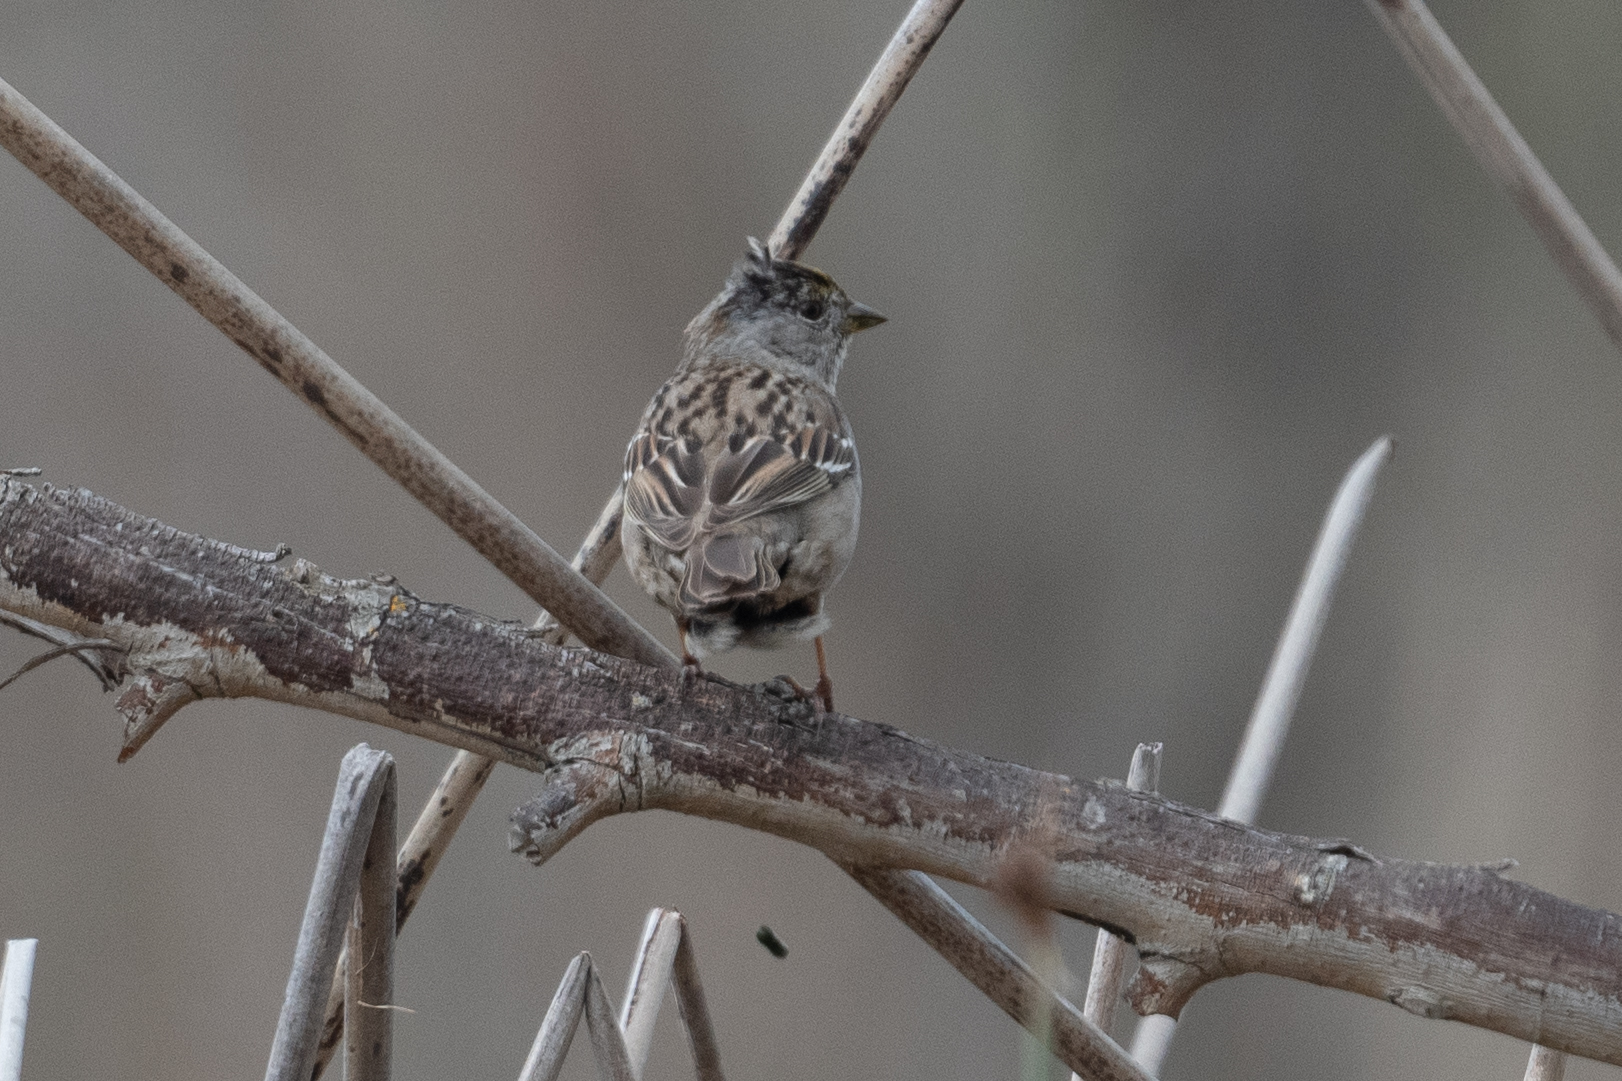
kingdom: Animalia
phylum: Chordata
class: Aves
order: Passeriformes
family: Passerellidae
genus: Zonotrichia
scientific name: Zonotrichia atricapilla
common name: Golden-crowned sparrow
